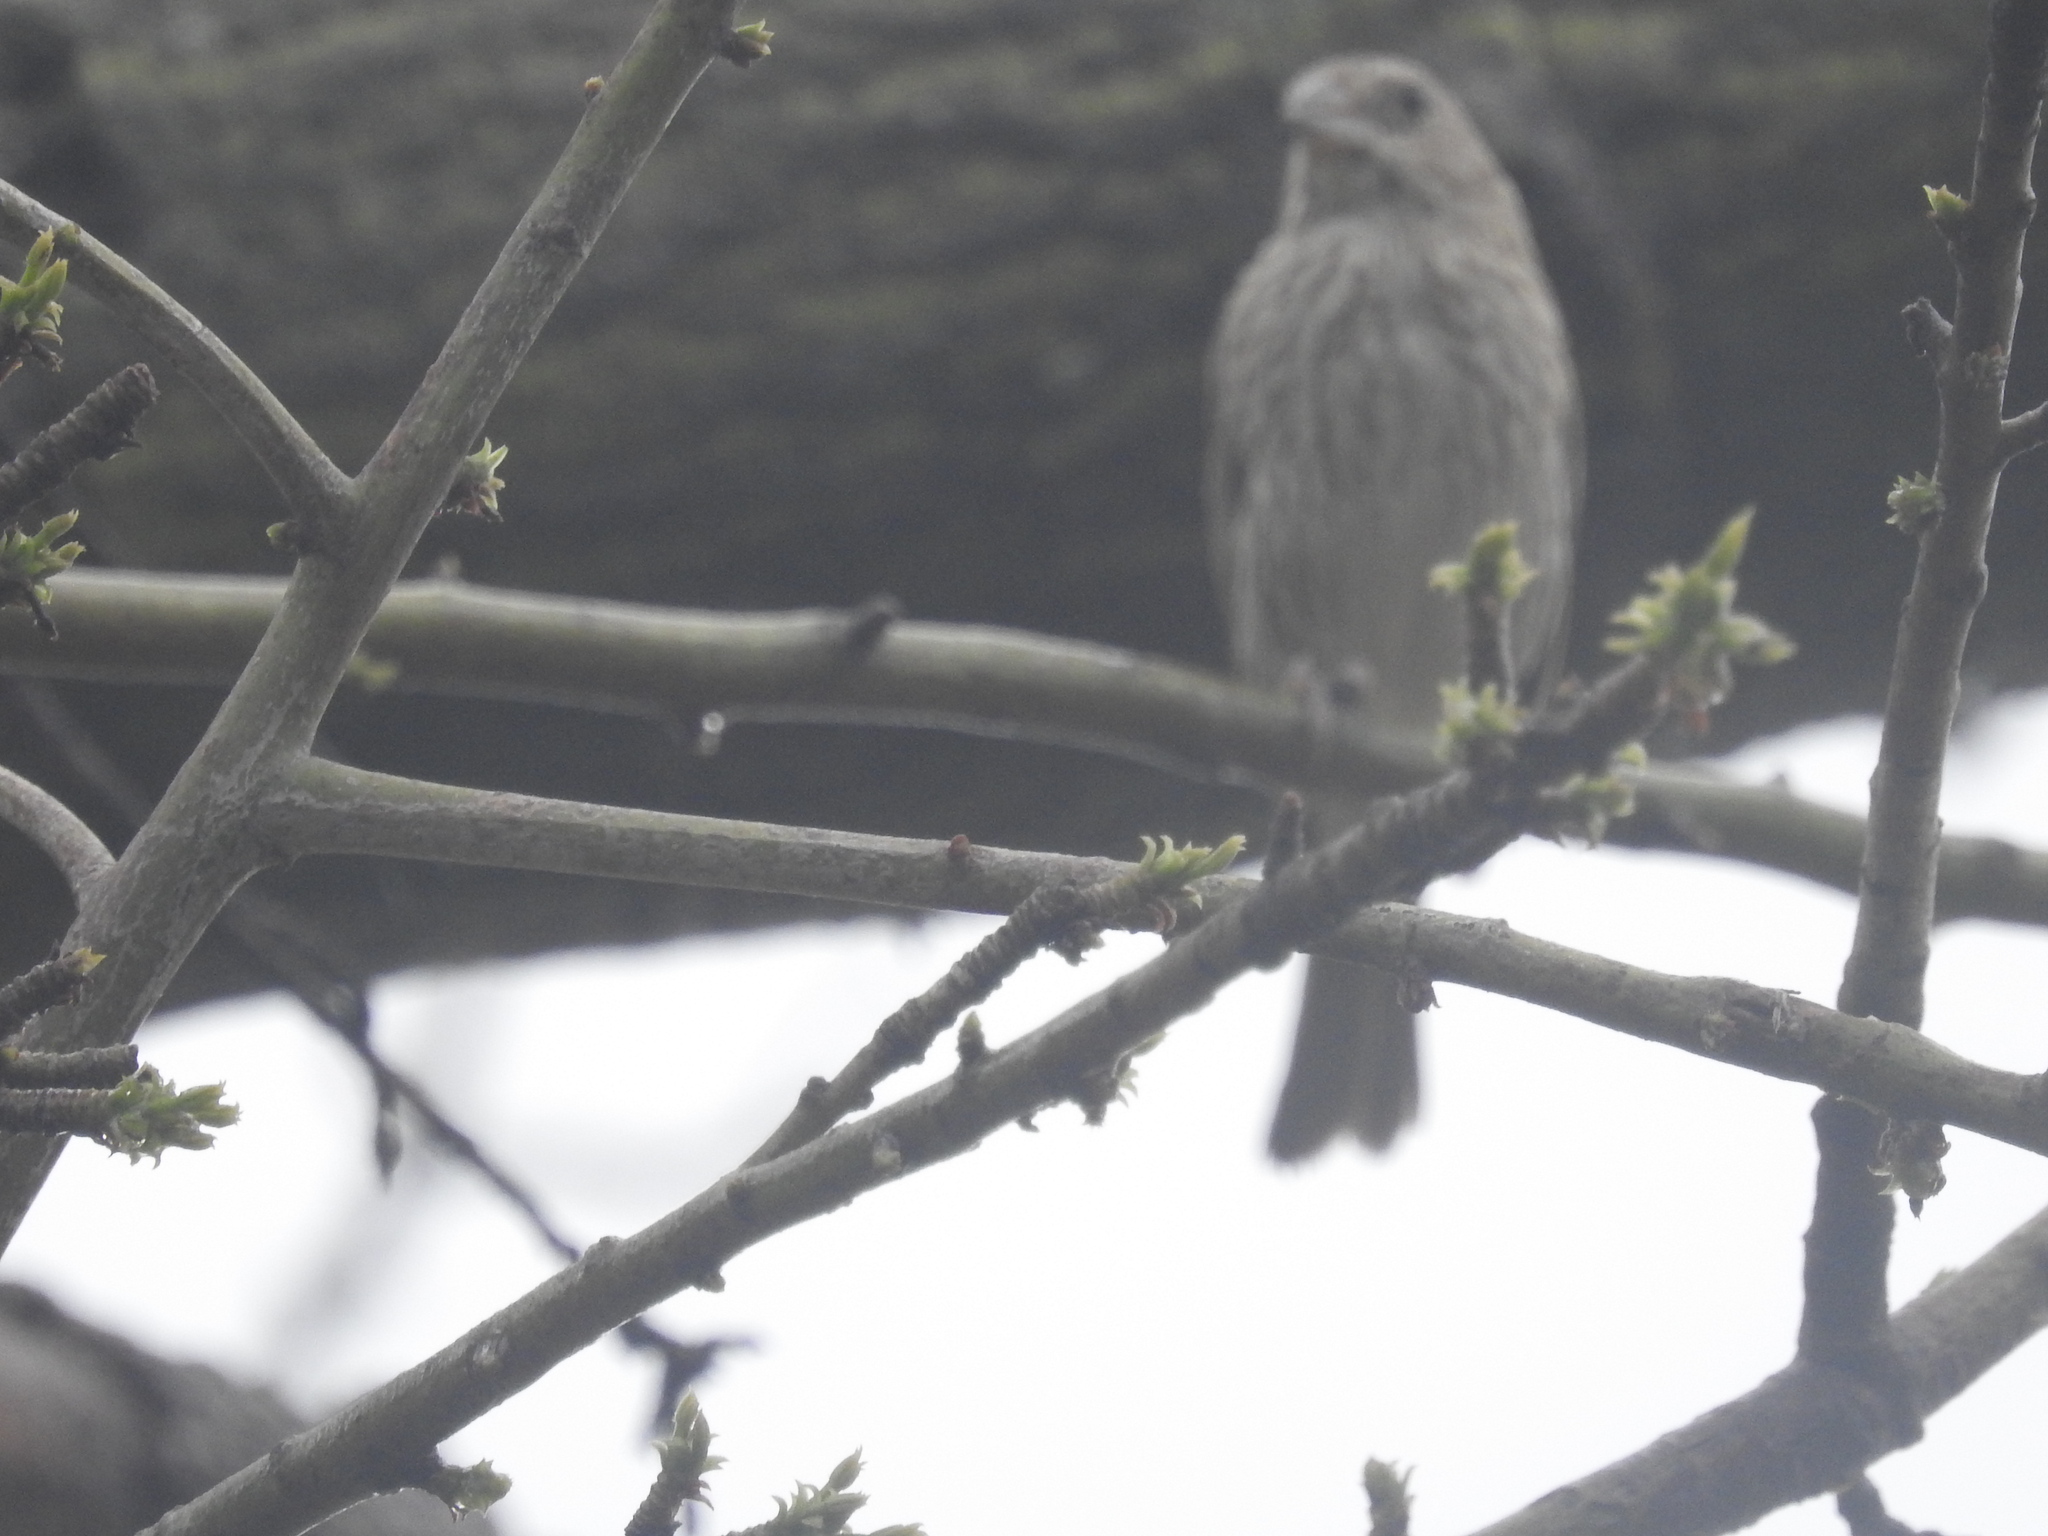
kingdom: Animalia
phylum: Chordata
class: Aves
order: Passeriformes
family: Thraupidae
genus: Sicalis
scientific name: Sicalis flaveola
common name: Saffron finch
